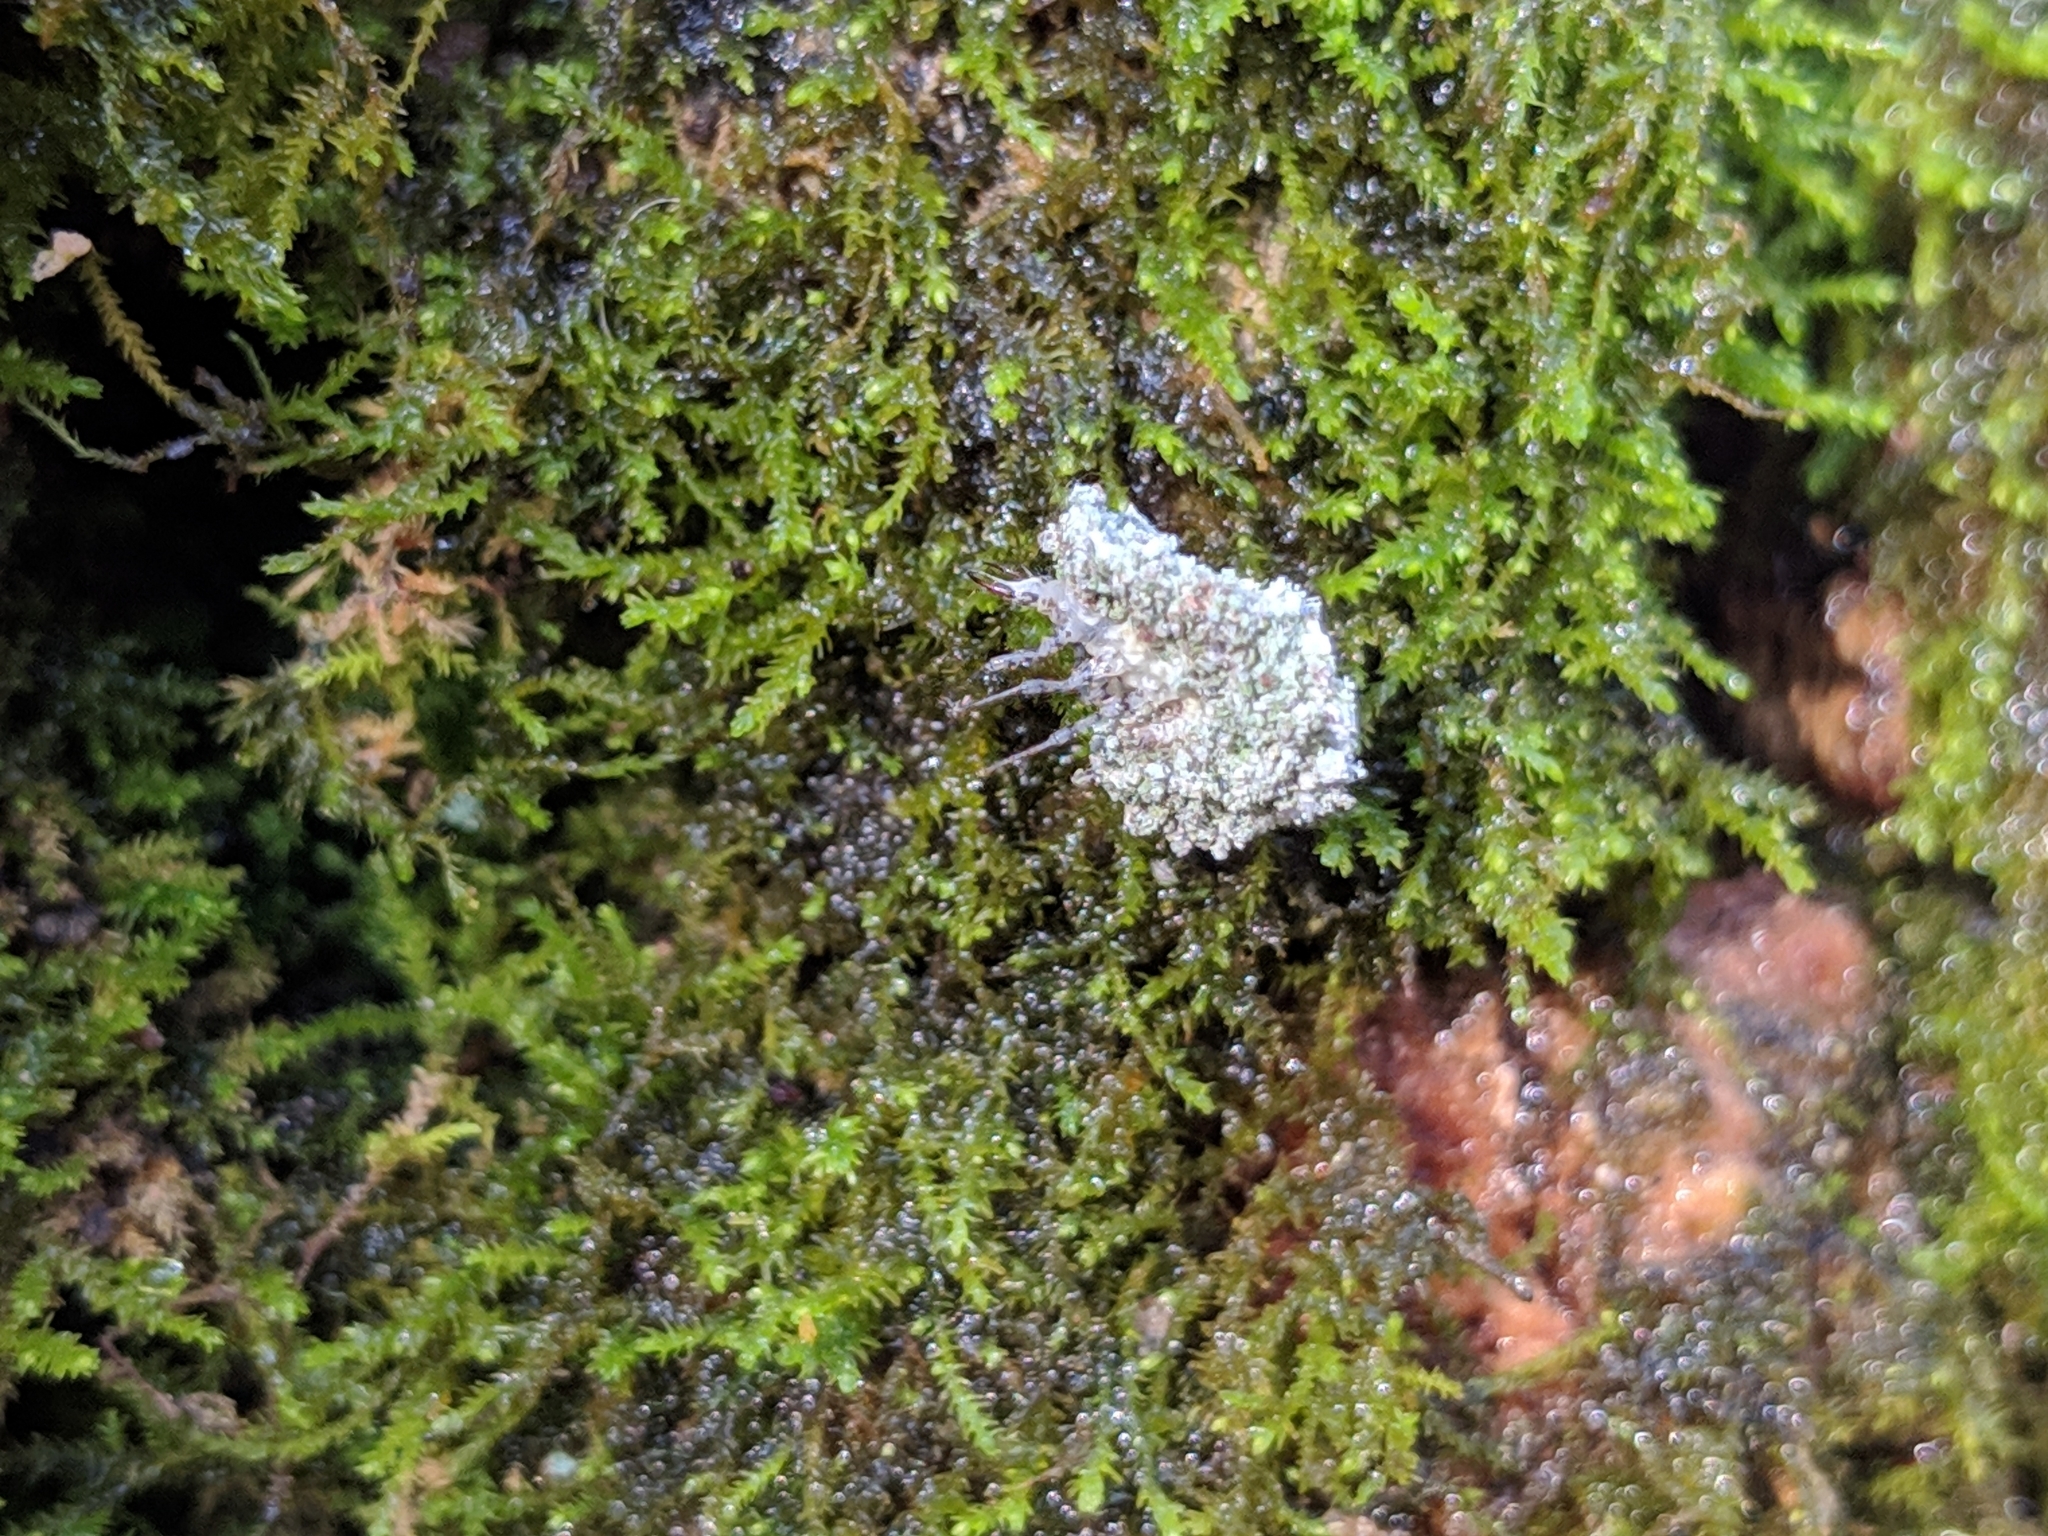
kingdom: Animalia
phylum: Arthropoda
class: Insecta
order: Neuroptera
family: Chrysopidae
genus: Leucochrysa
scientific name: Leucochrysa pavida
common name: Lichen-carrying green lacewing
